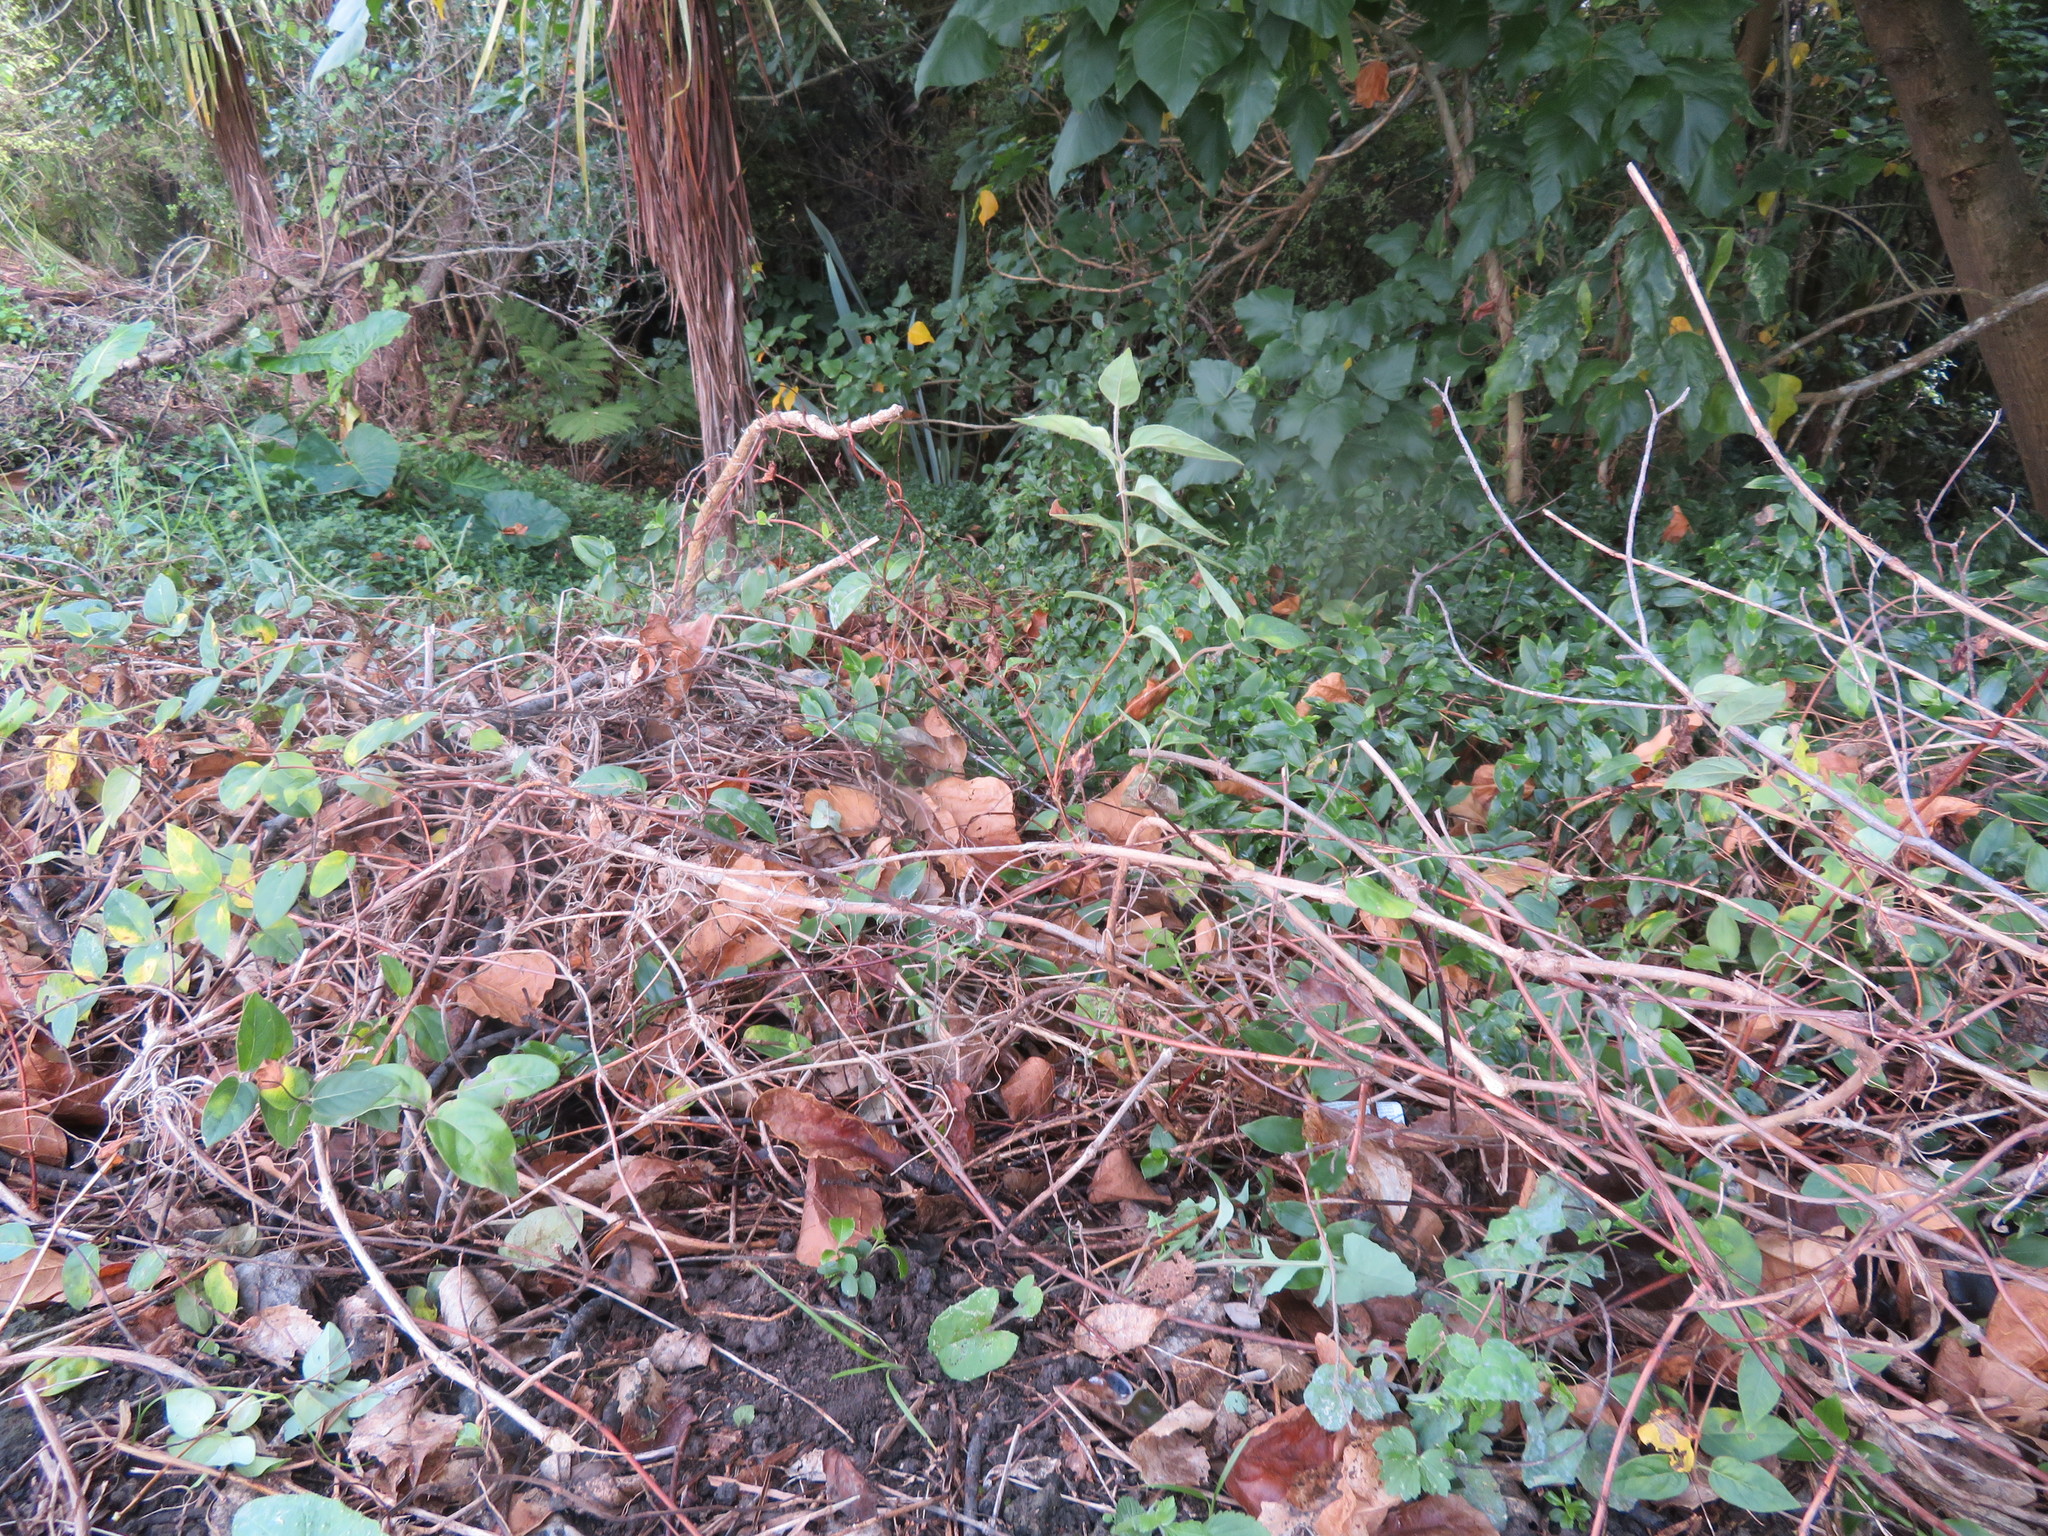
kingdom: Plantae
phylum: Tracheophyta
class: Magnoliopsida
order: Asterales
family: Asteraceae
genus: Sonchus
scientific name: Sonchus oleraceus
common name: Common sowthistle
